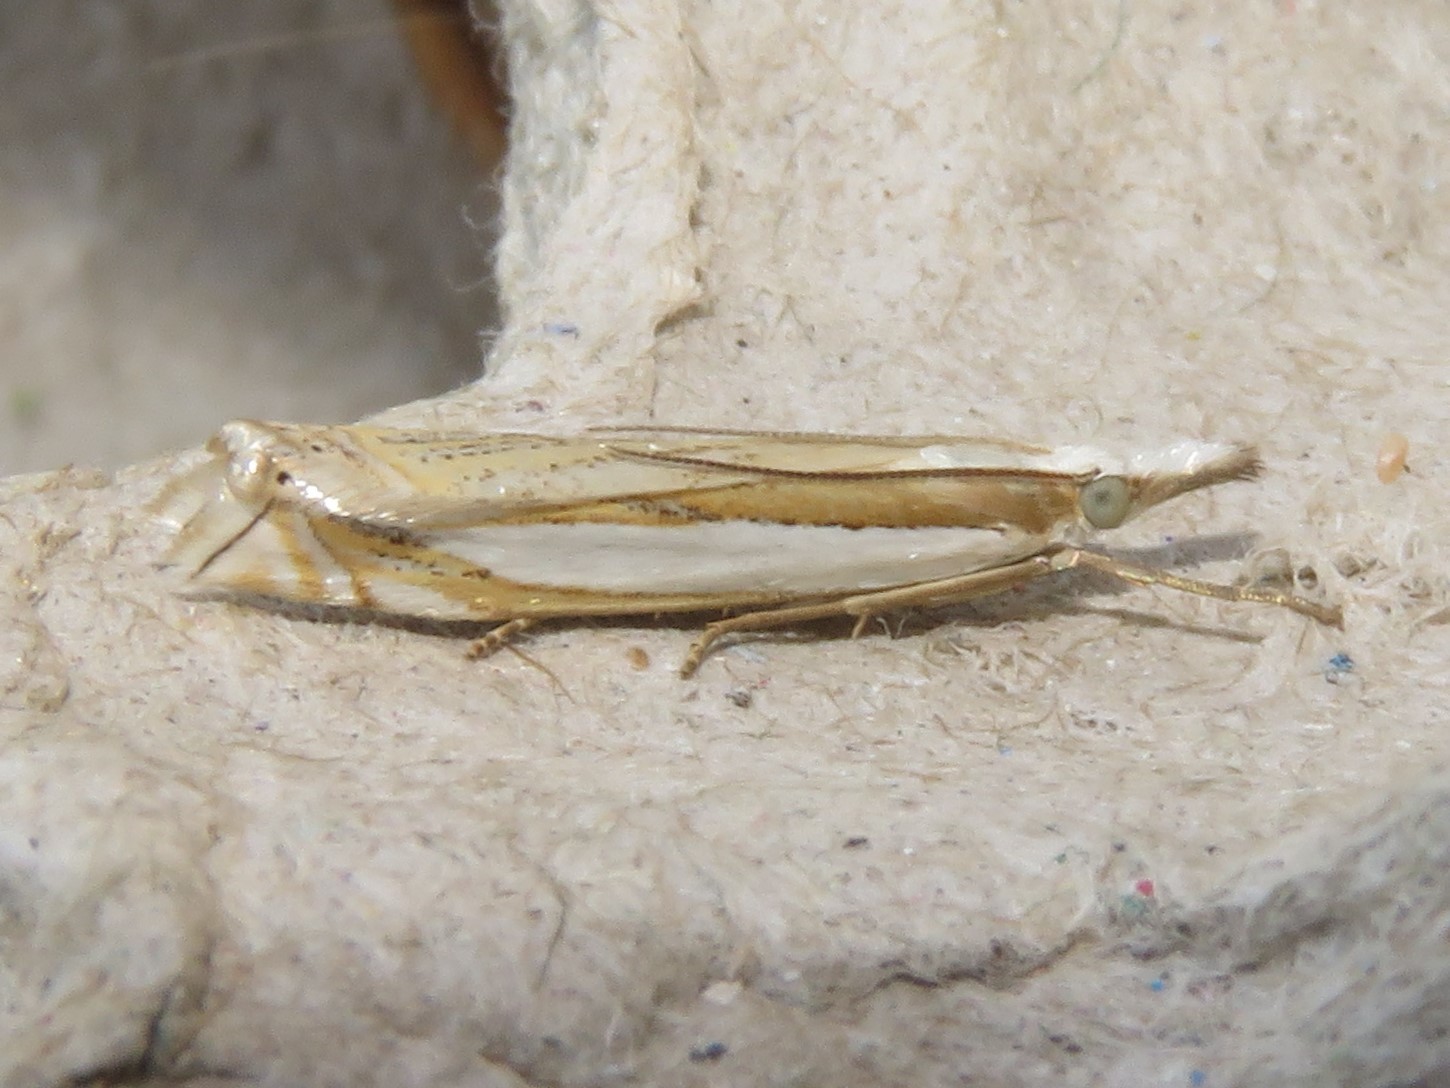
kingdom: Animalia
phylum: Arthropoda
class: Insecta
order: Lepidoptera
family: Crambidae
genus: Crambus
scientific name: Crambus pascuella
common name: Inlaid grass-veneer
